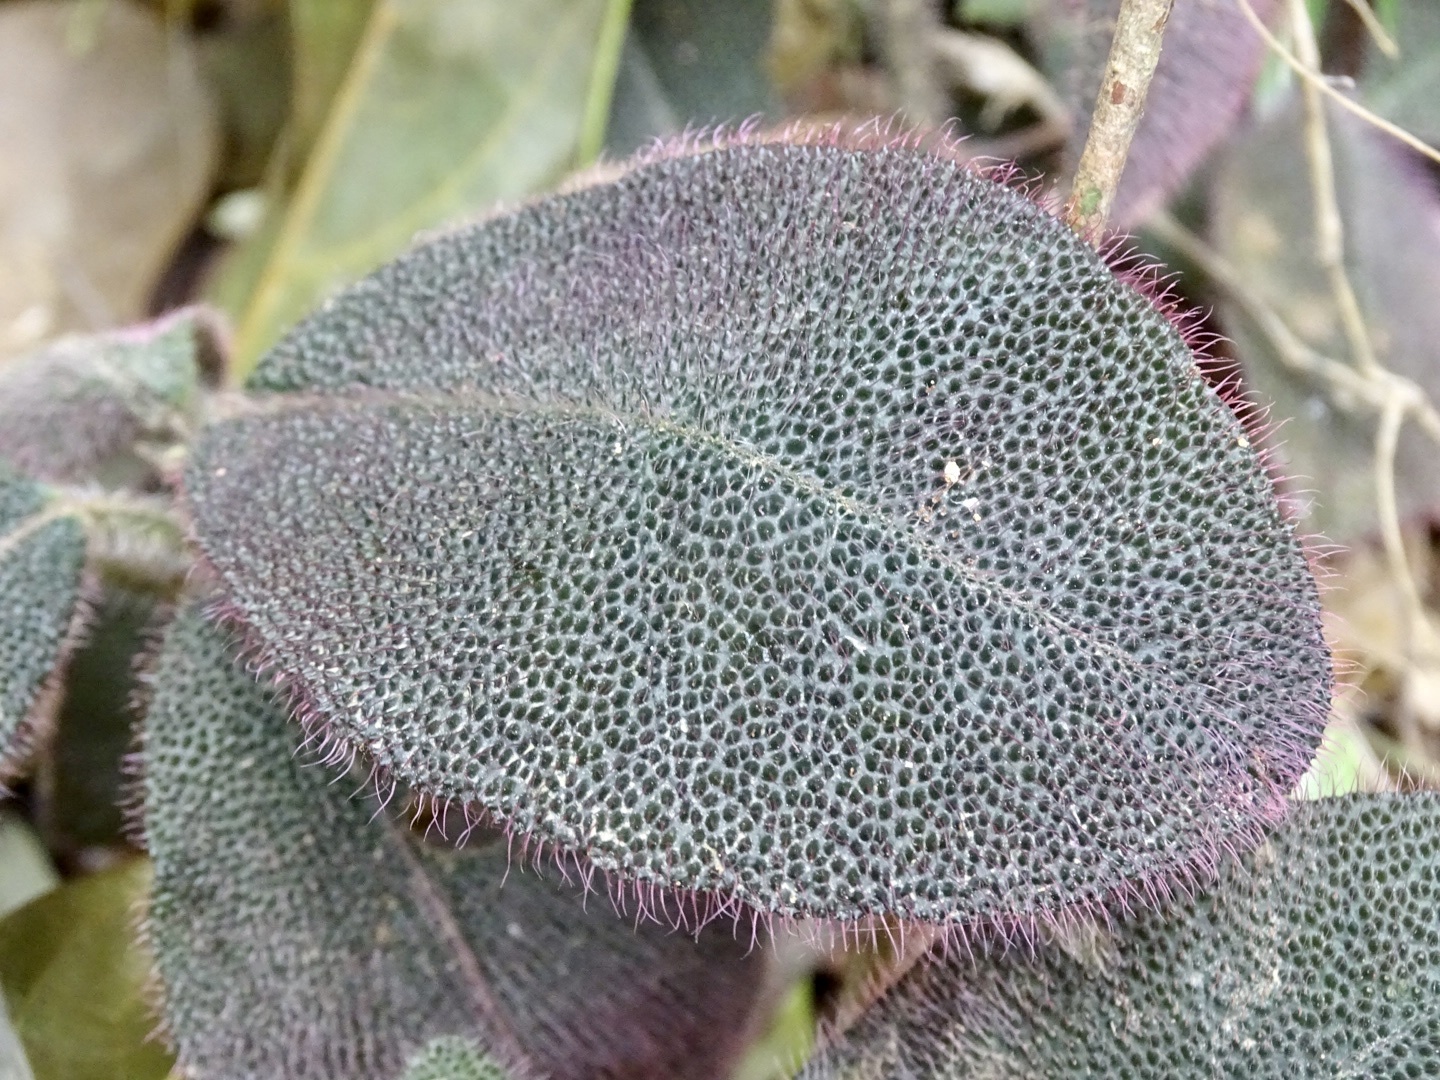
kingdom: Plantae
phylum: Tracheophyta
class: Magnoliopsida
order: Ericales
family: Primulaceae
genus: Ardisia
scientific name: Ardisia mamillata
